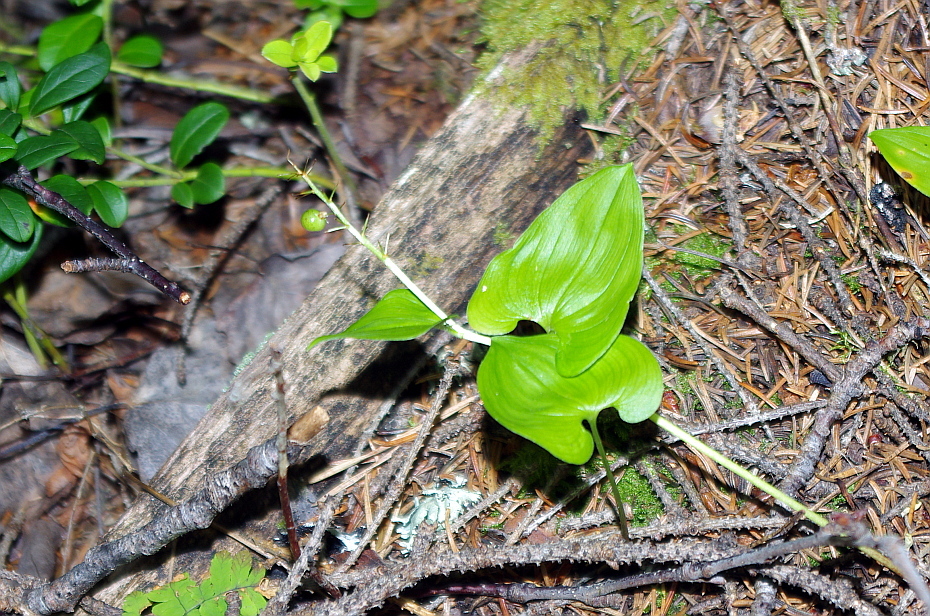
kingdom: Plantae
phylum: Tracheophyta
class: Liliopsida
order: Asparagales
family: Asparagaceae
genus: Maianthemum
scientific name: Maianthemum bifolium
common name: May lily
